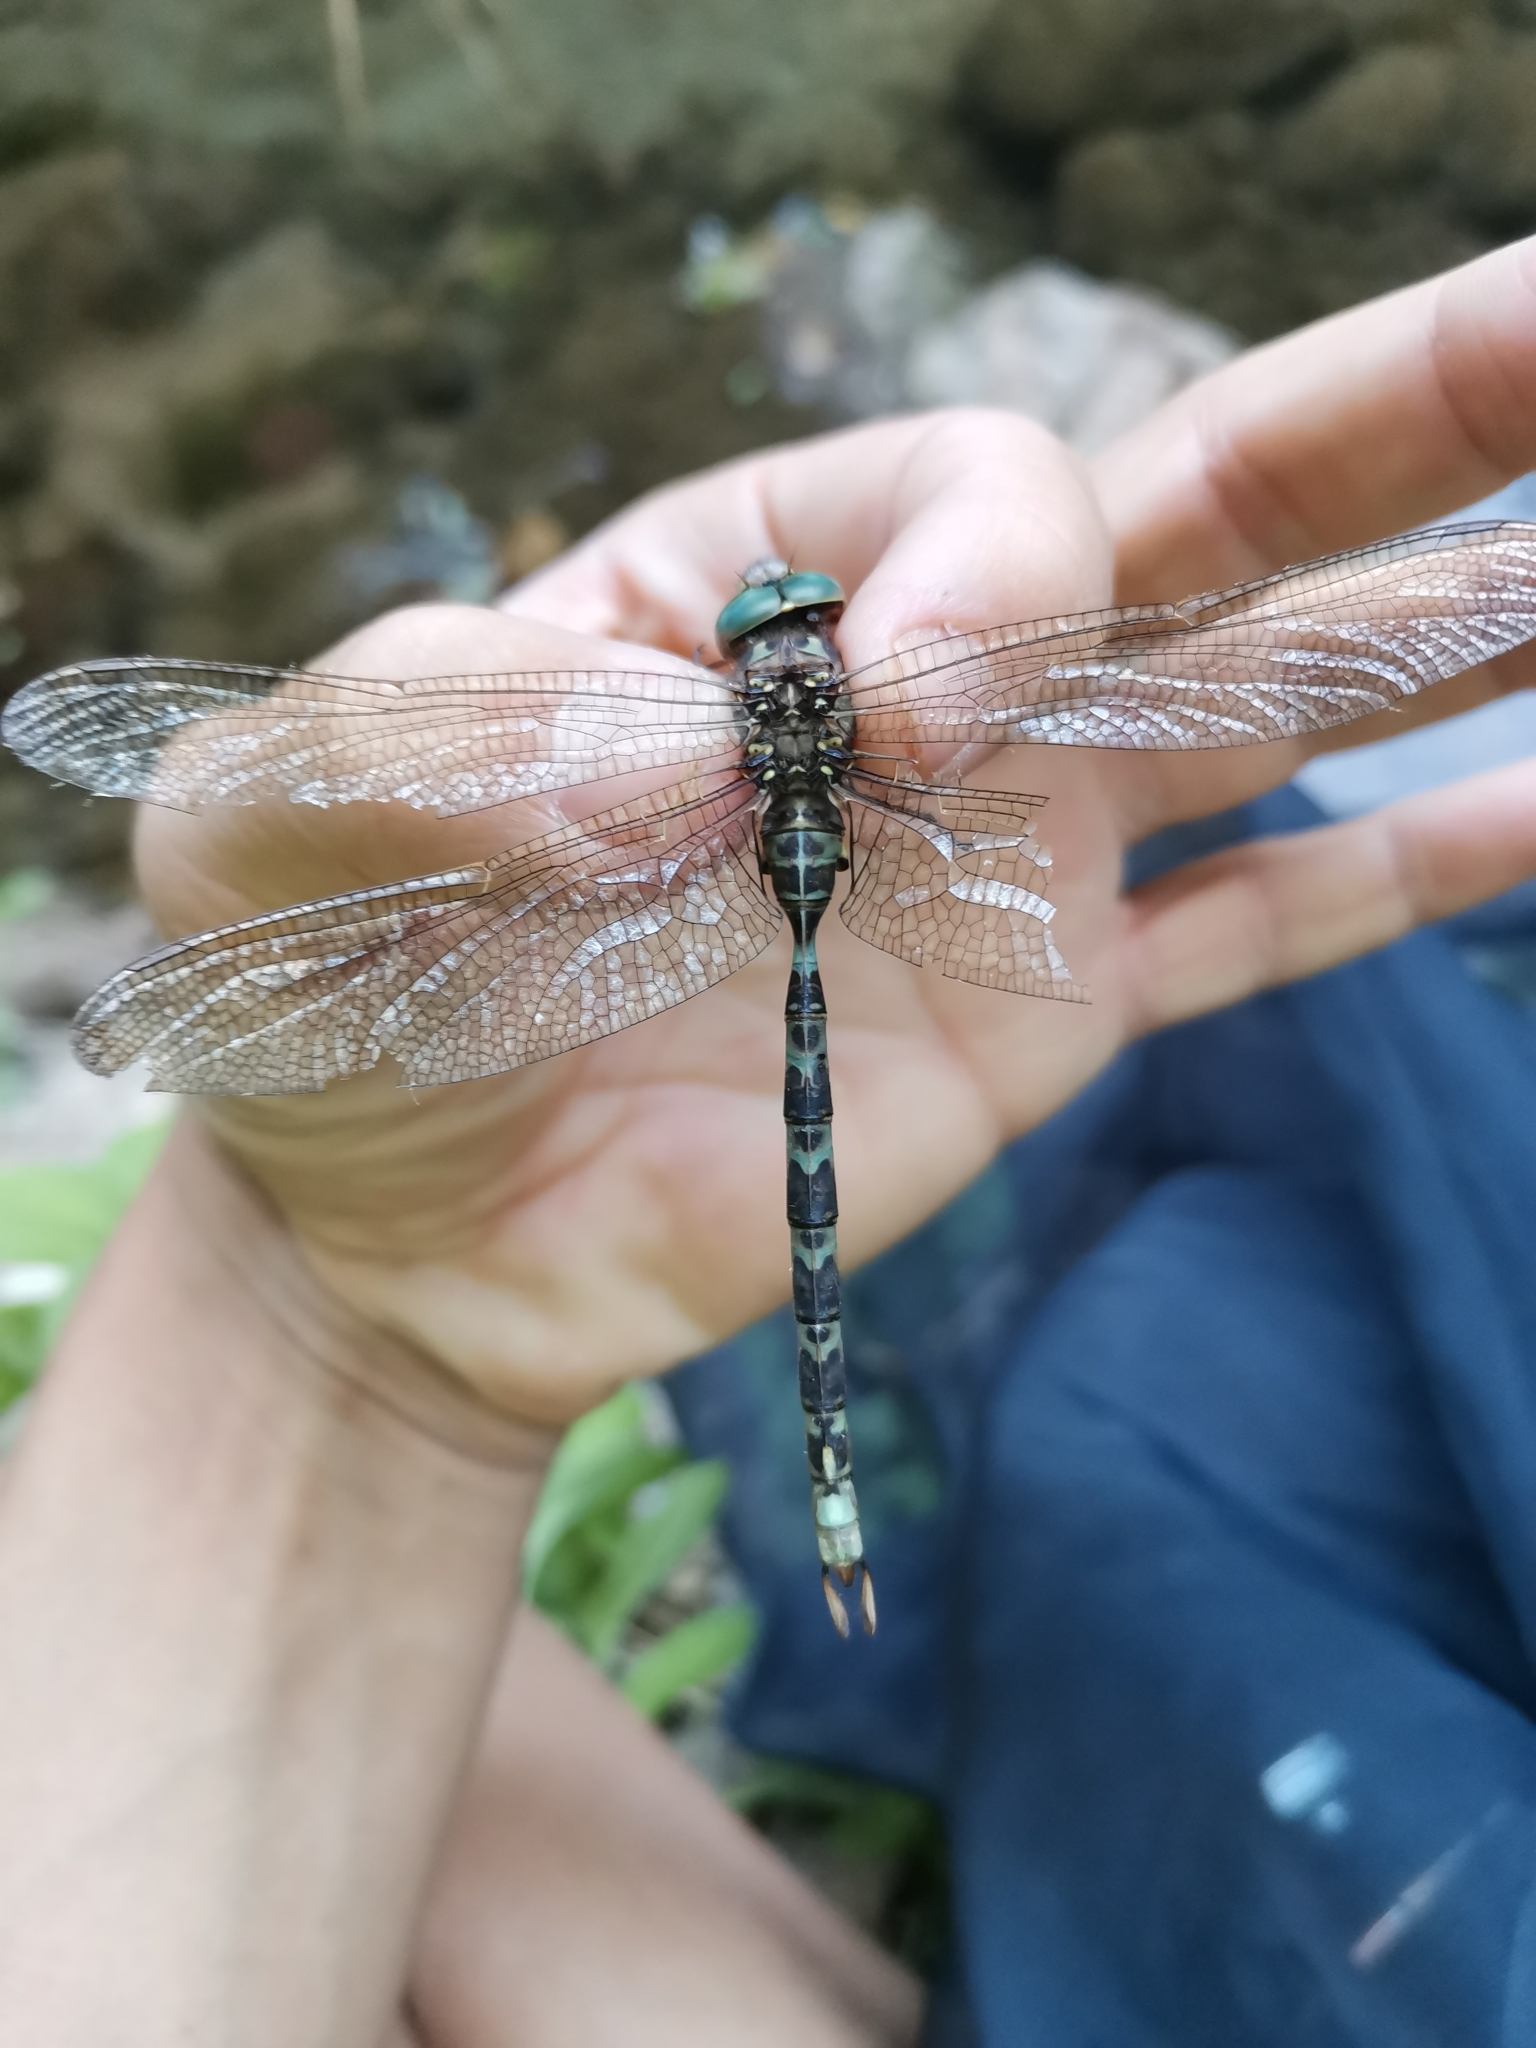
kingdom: Animalia
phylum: Arthropoda
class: Insecta
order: Odonata
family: Aeshnidae
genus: Boyeria
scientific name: Boyeria irene
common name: Western spectre
